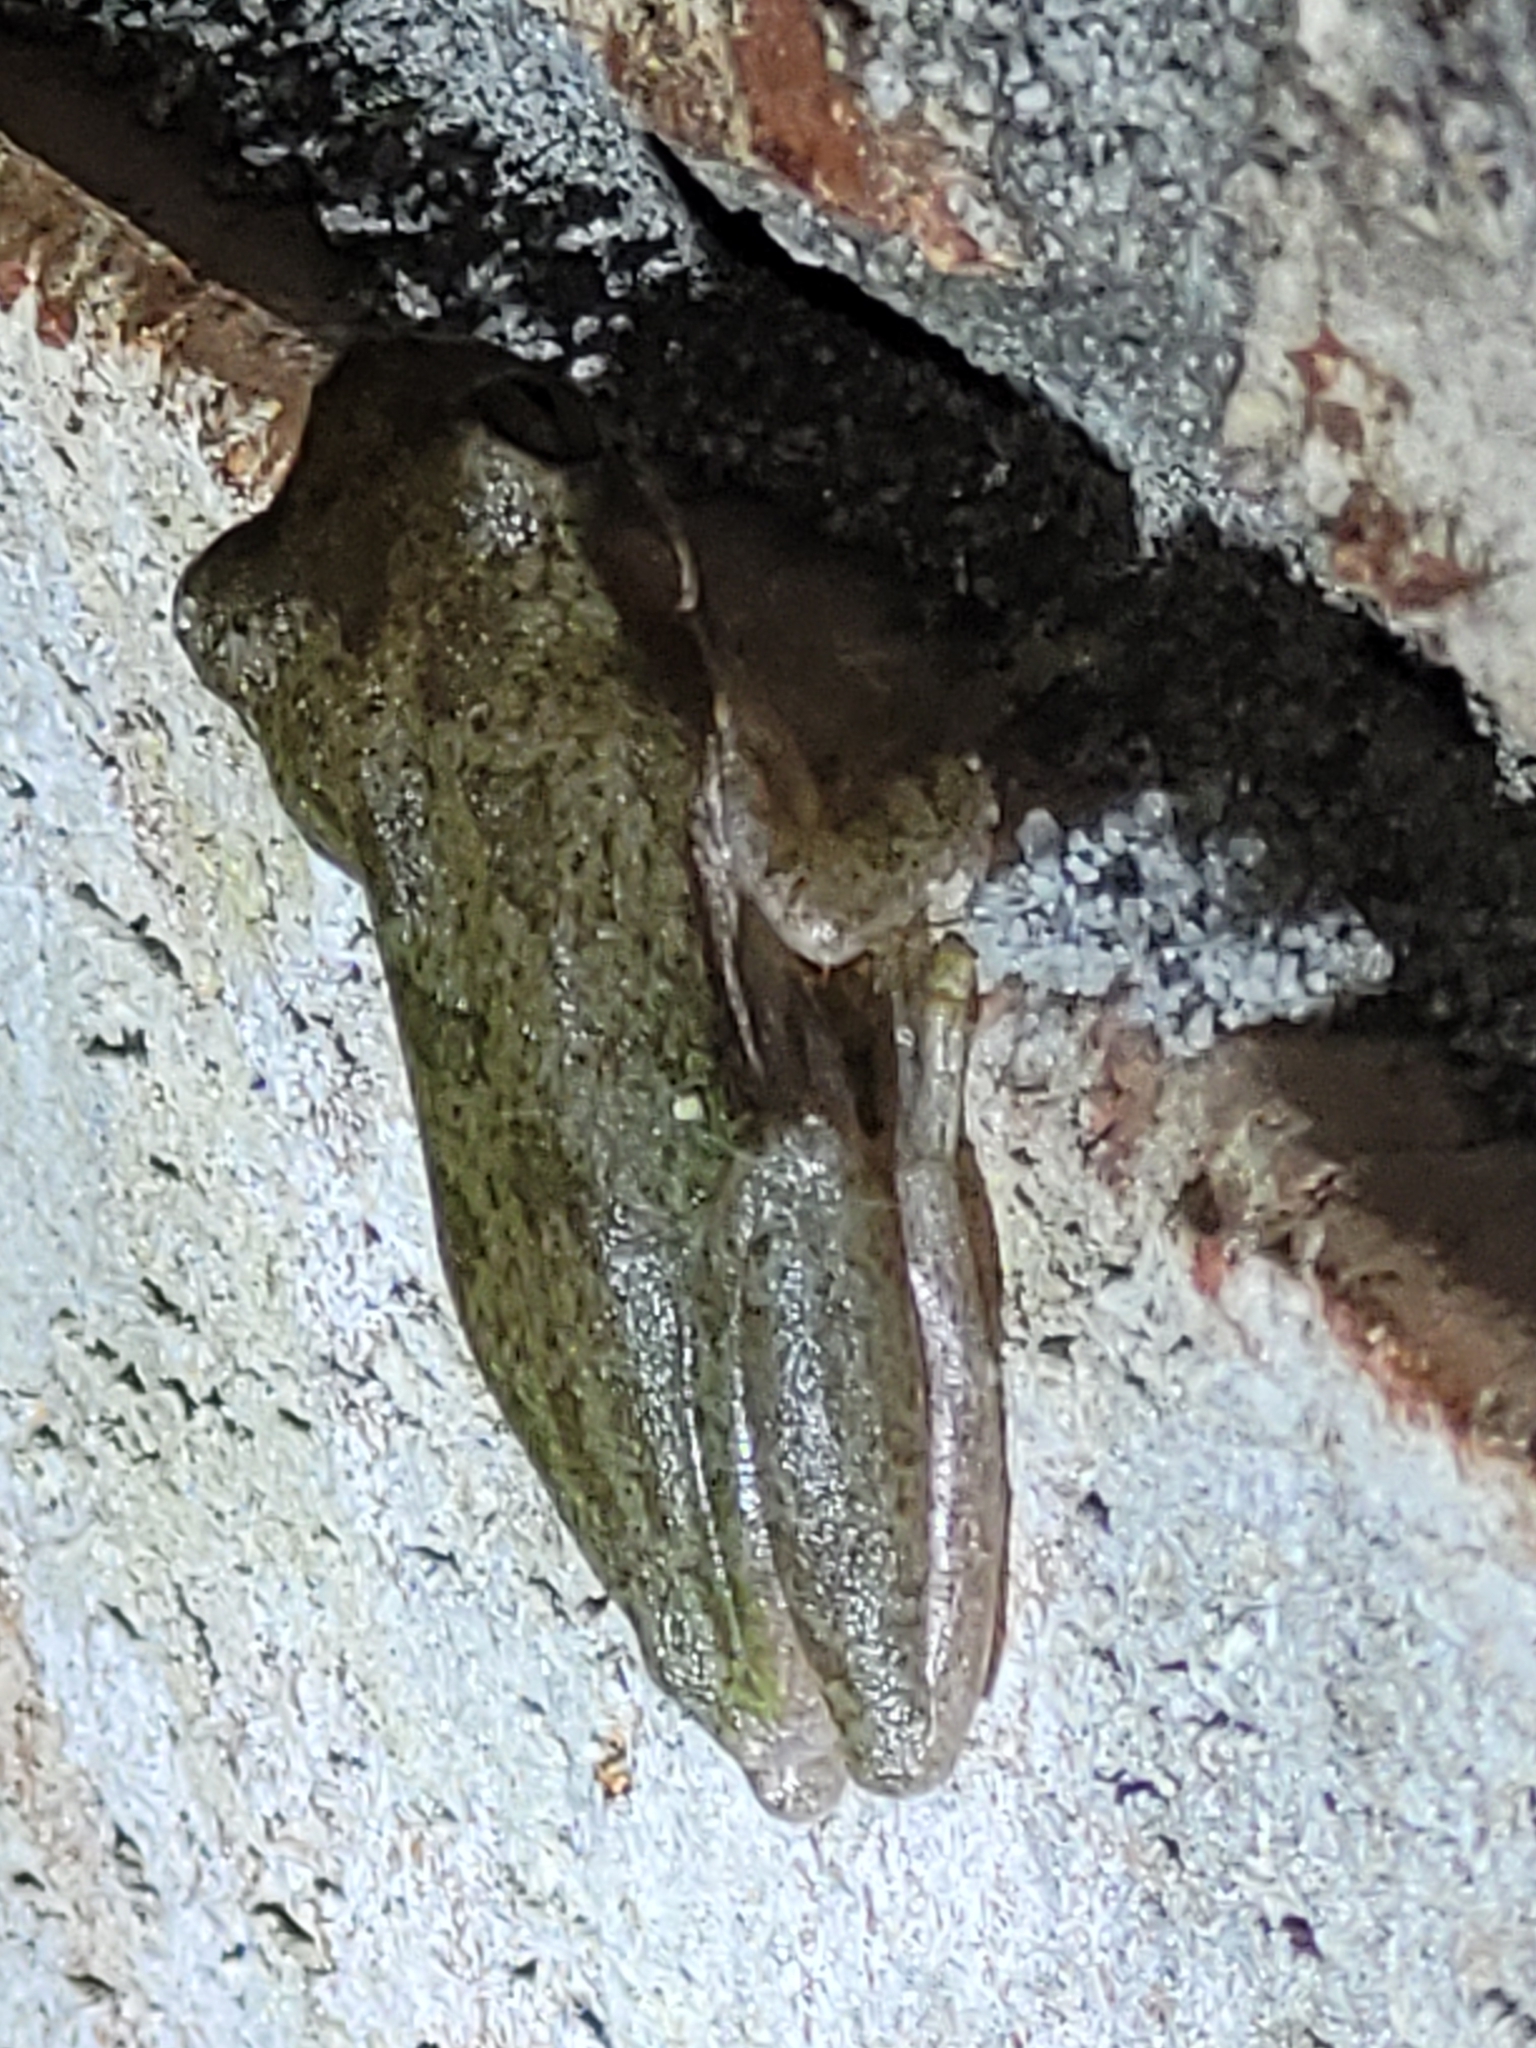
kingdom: Animalia
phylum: Chordata
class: Amphibia
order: Anura
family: Hylidae
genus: Dryophytes
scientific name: Dryophytes squirellus
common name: Squirrel treefrog
